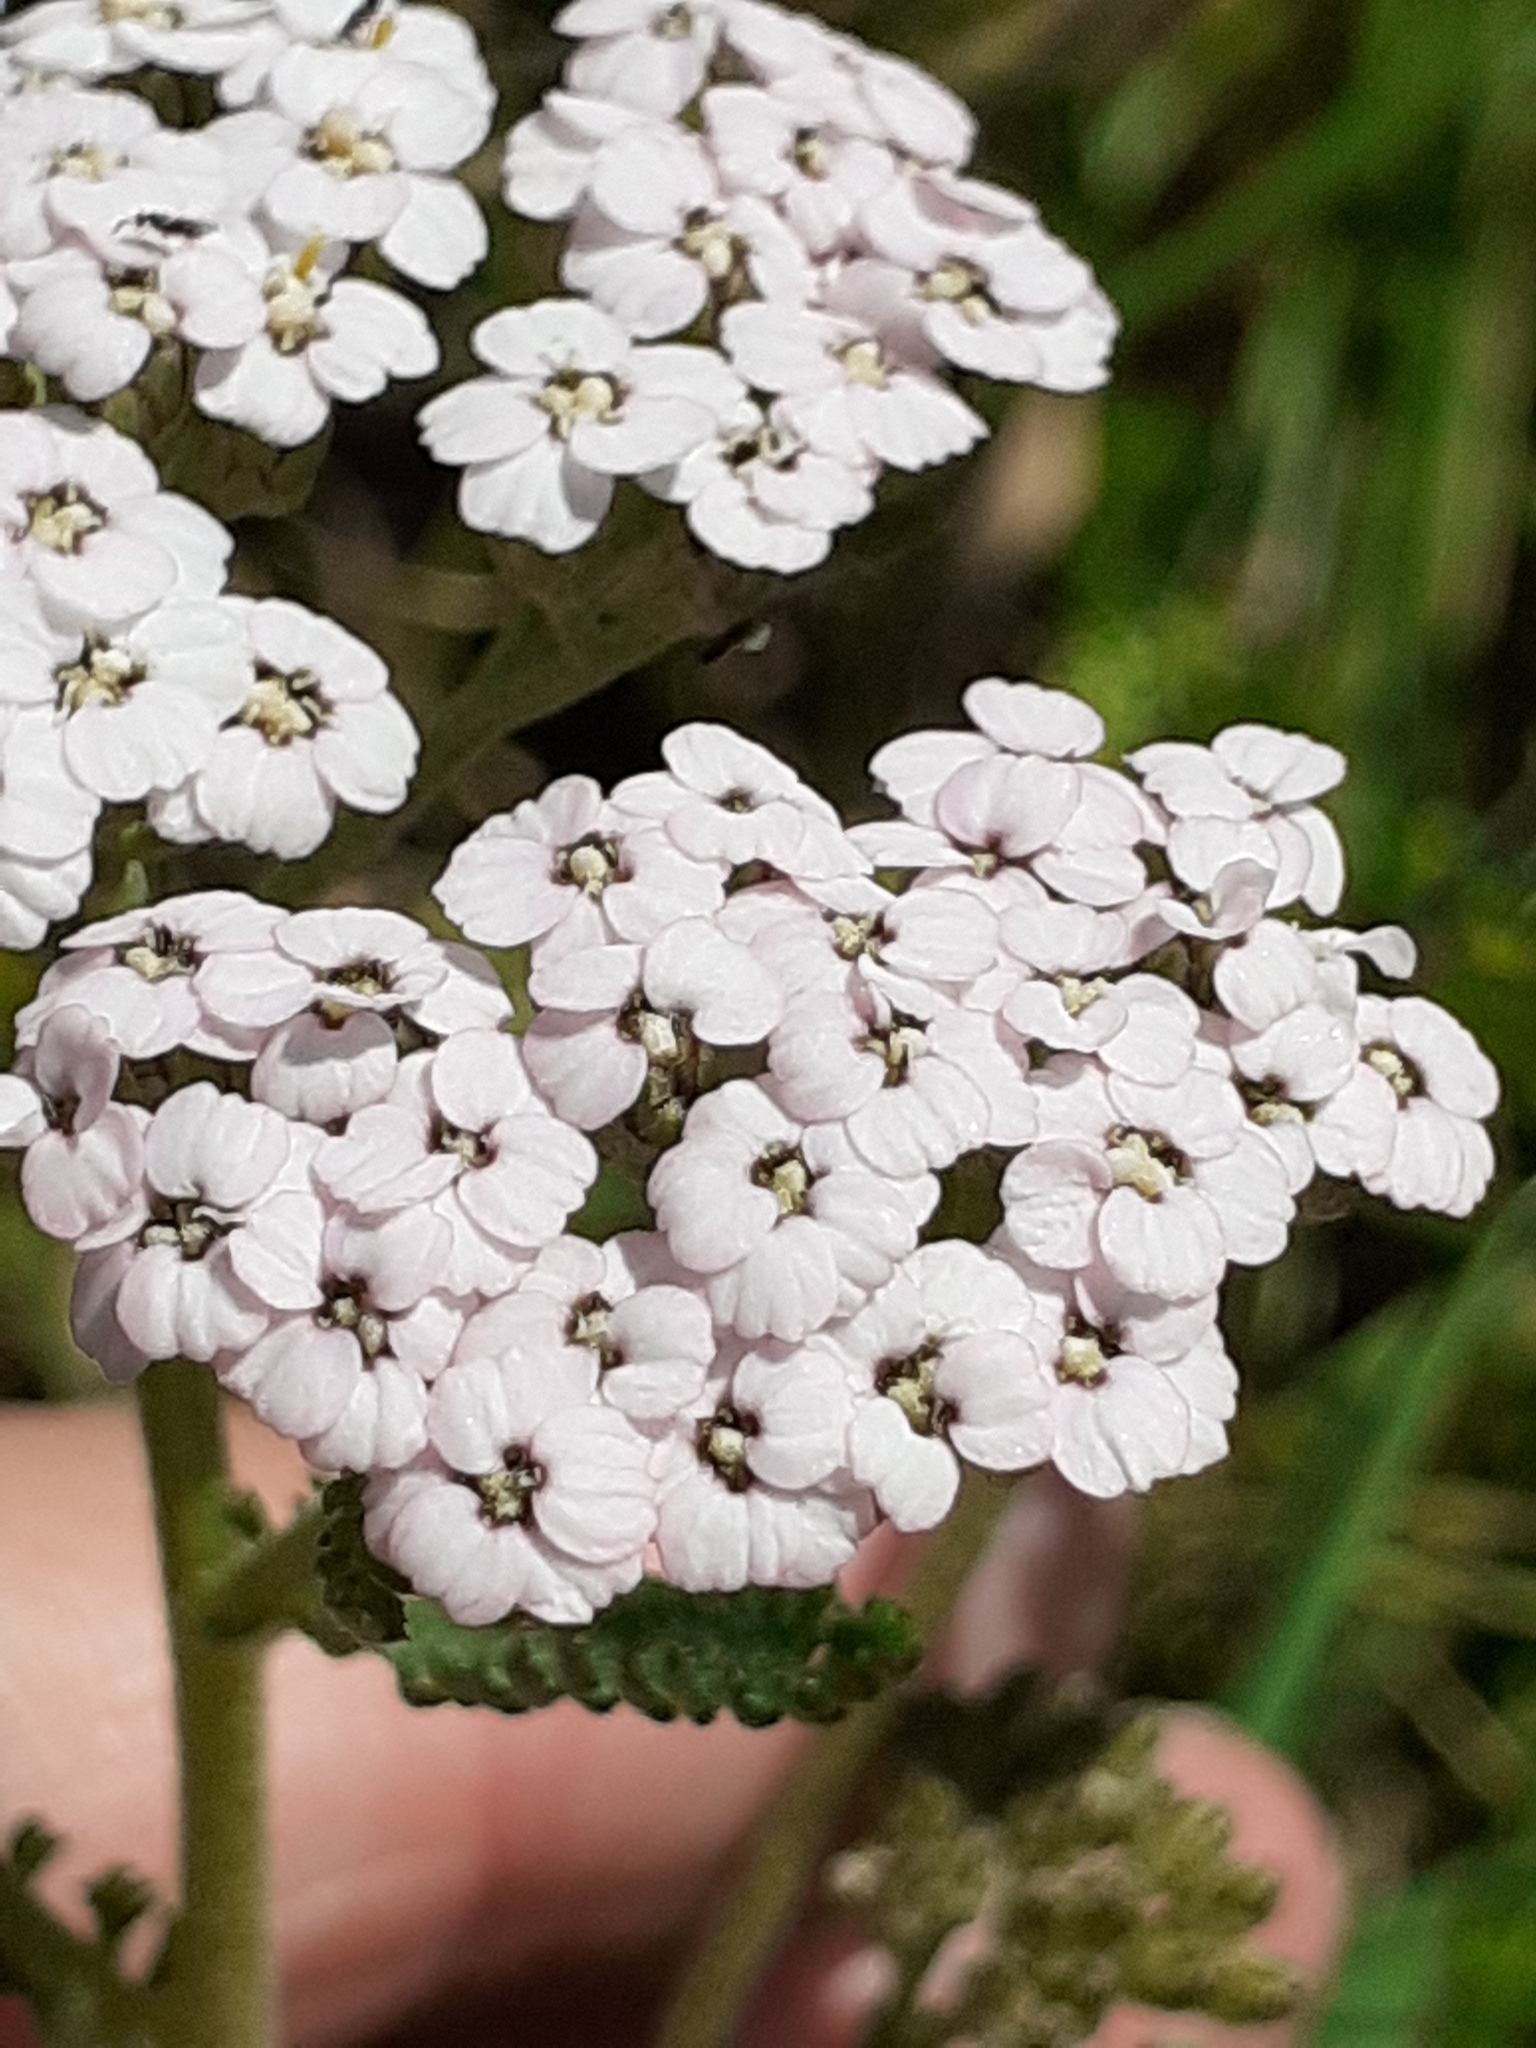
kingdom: Plantae
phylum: Tracheophyta
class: Magnoliopsida
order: Asterales
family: Asteraceae
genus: Achillea
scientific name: Achillea millefolium
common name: Yarrow
